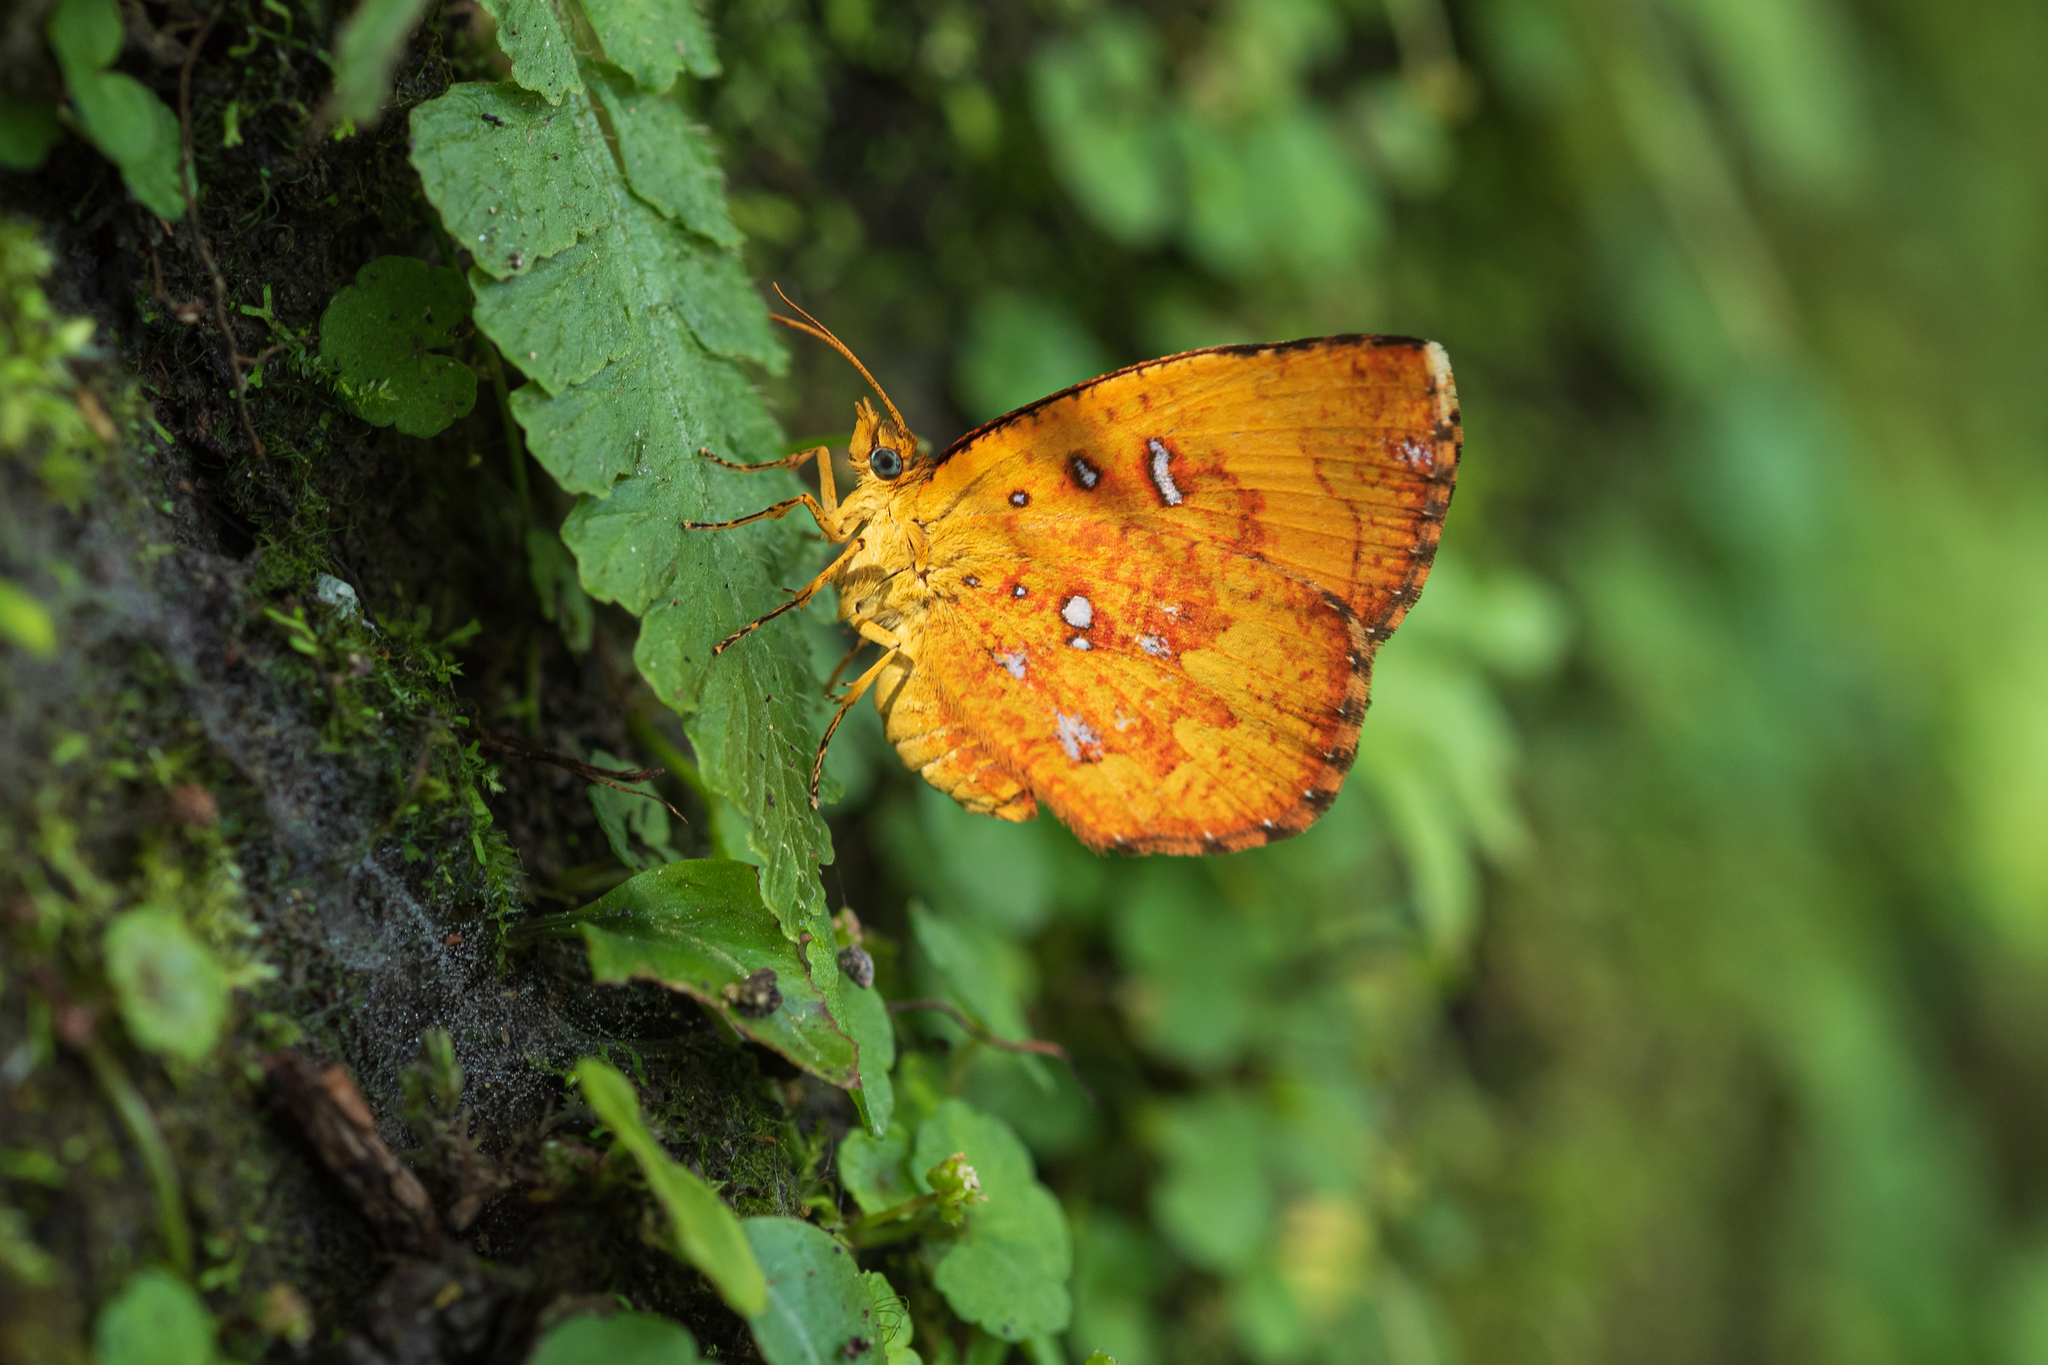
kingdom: Animalia
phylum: Arthropoda
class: Insecta
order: Lepidoptera
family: Callidulidae
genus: Petavia
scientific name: Petavia attenuata
